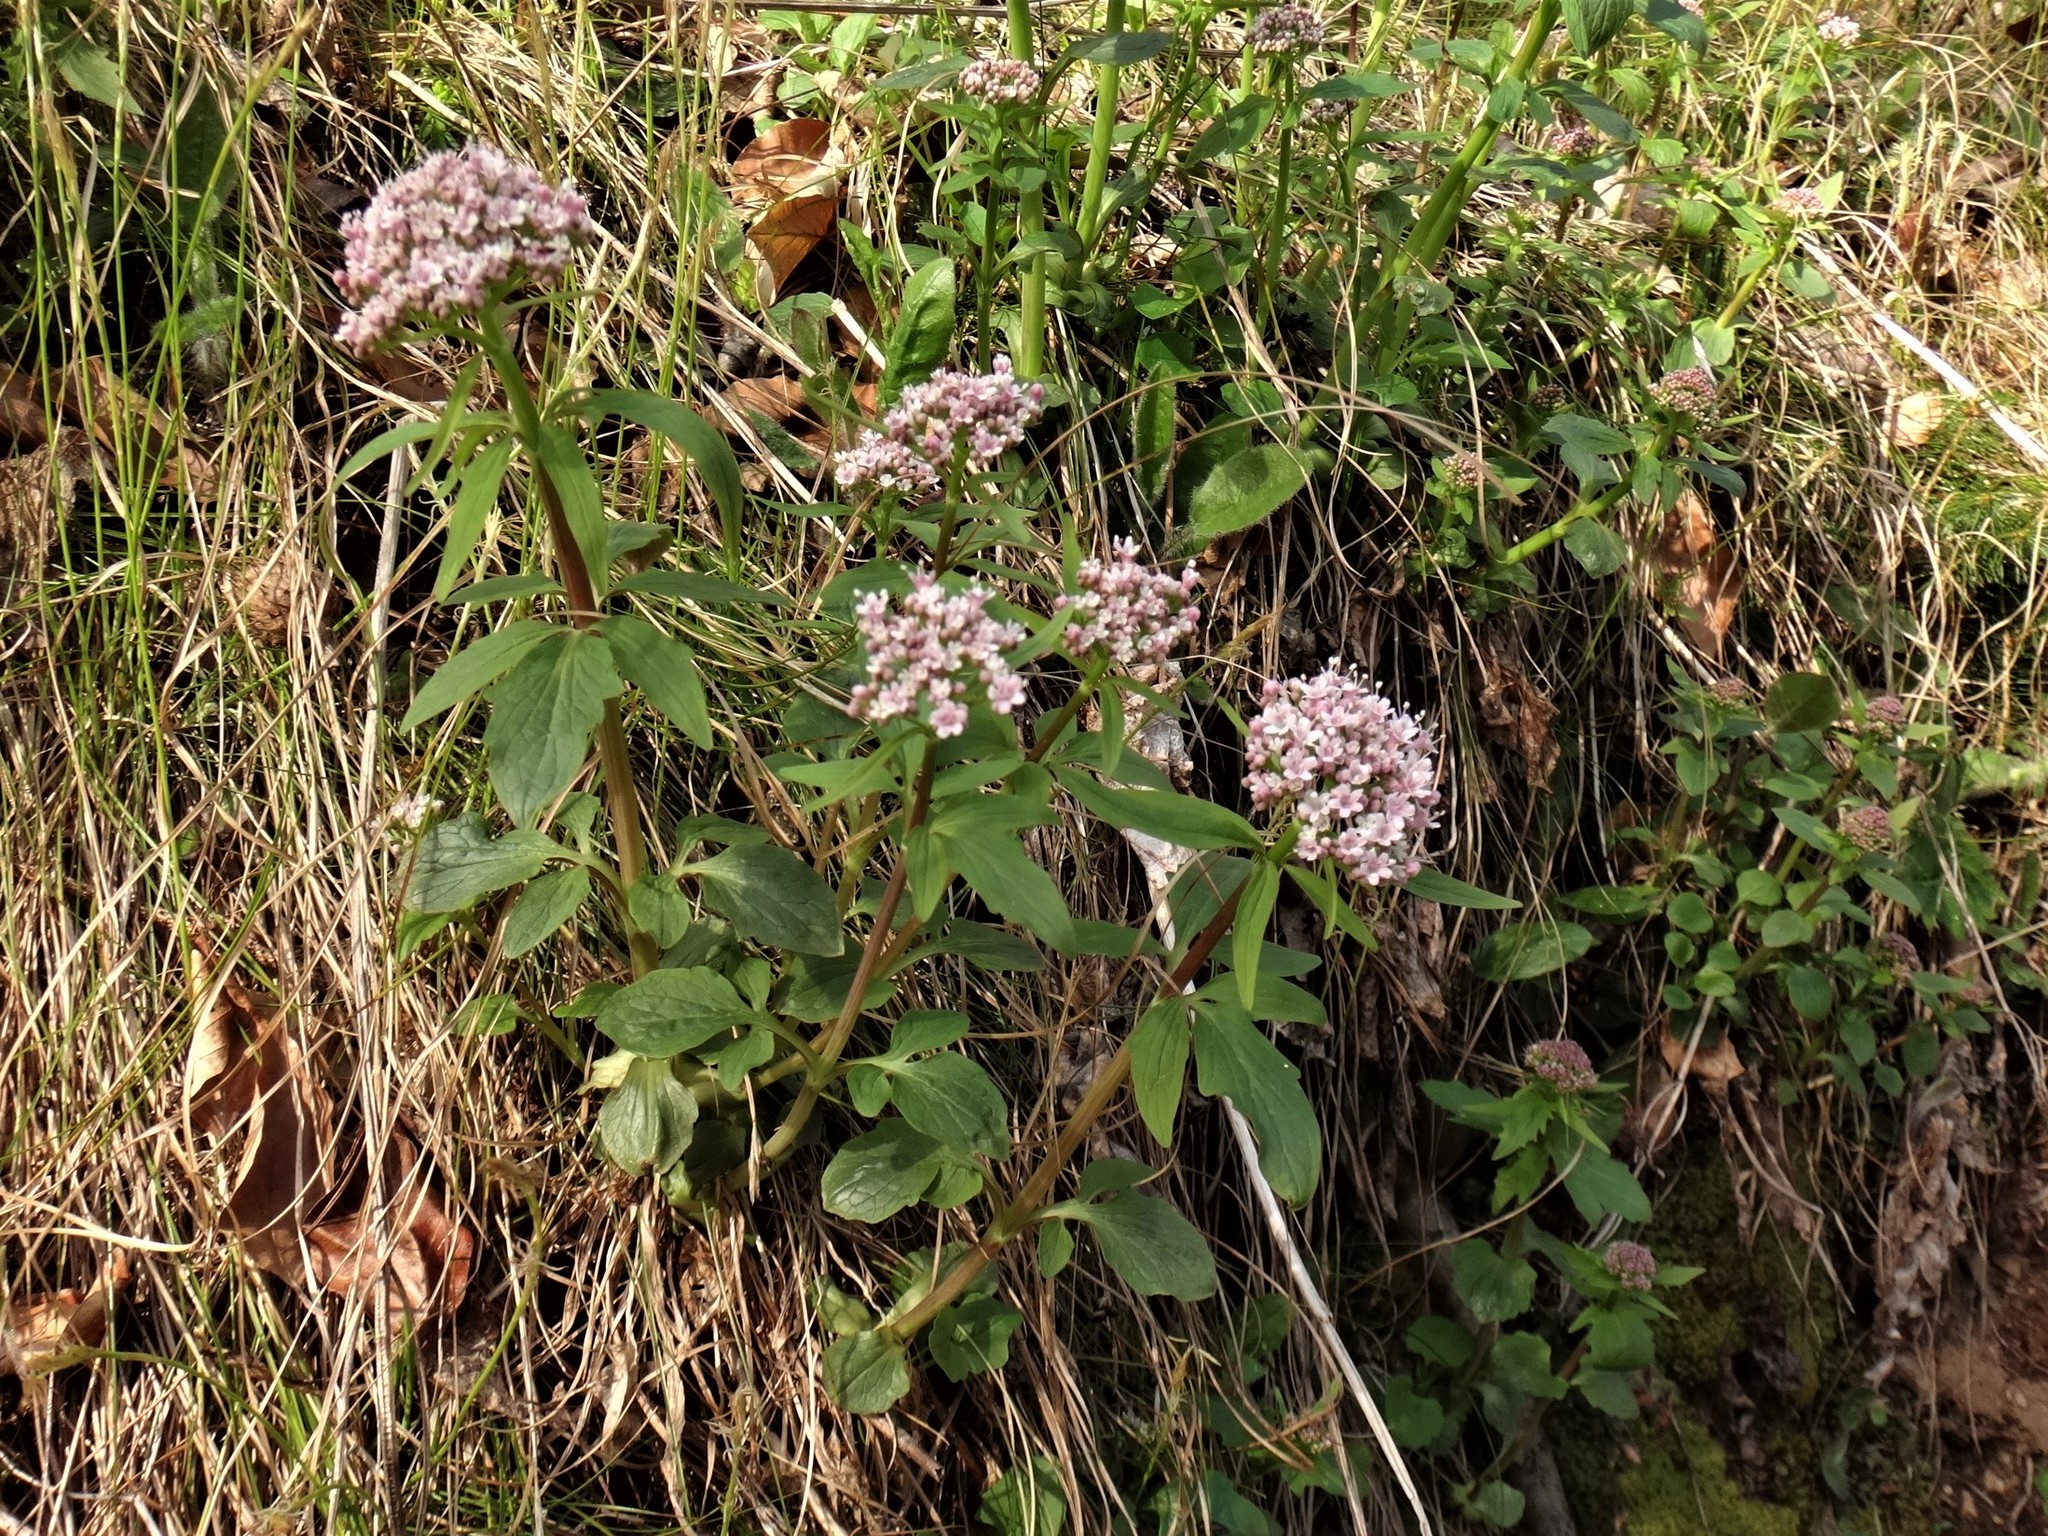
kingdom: Plantae
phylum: Tracheophyta
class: Magnoliopsida
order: Dipsacales
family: Caprifoliaceae
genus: Valeriana
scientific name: Valeriana tripteris
